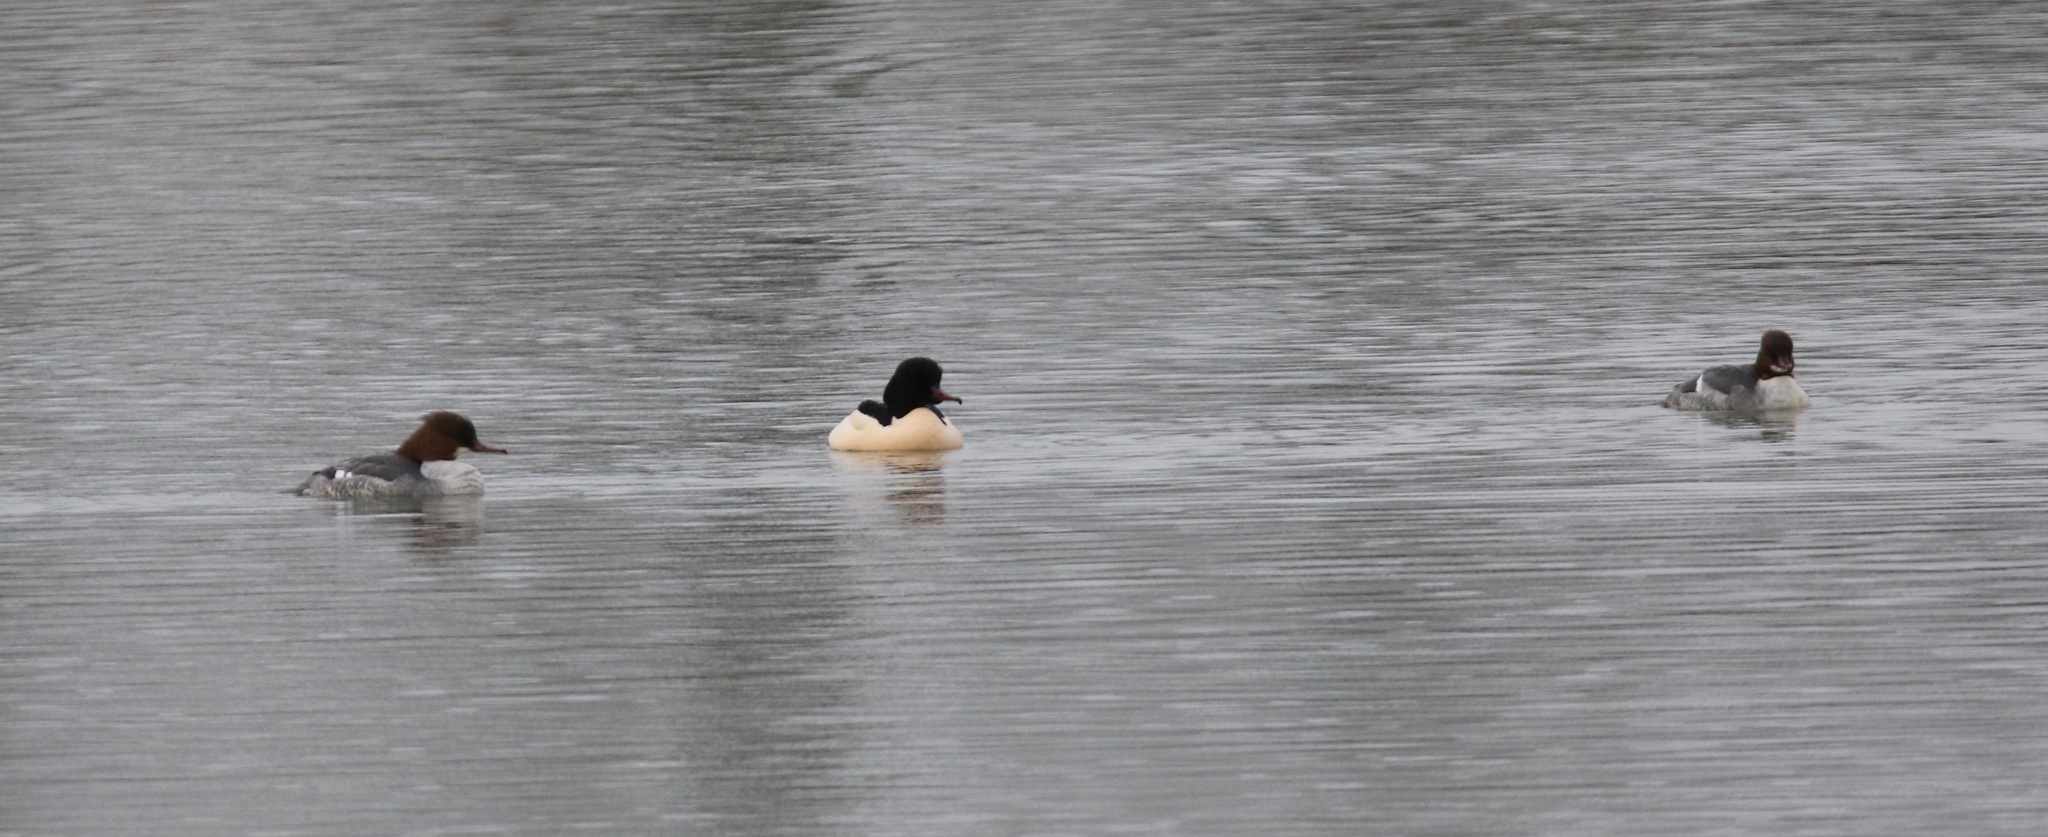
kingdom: Animalia
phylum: Chordata
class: Aves
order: Anseriformes
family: Anatidae
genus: Mergus
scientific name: Mergus merganser
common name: Common merganser
